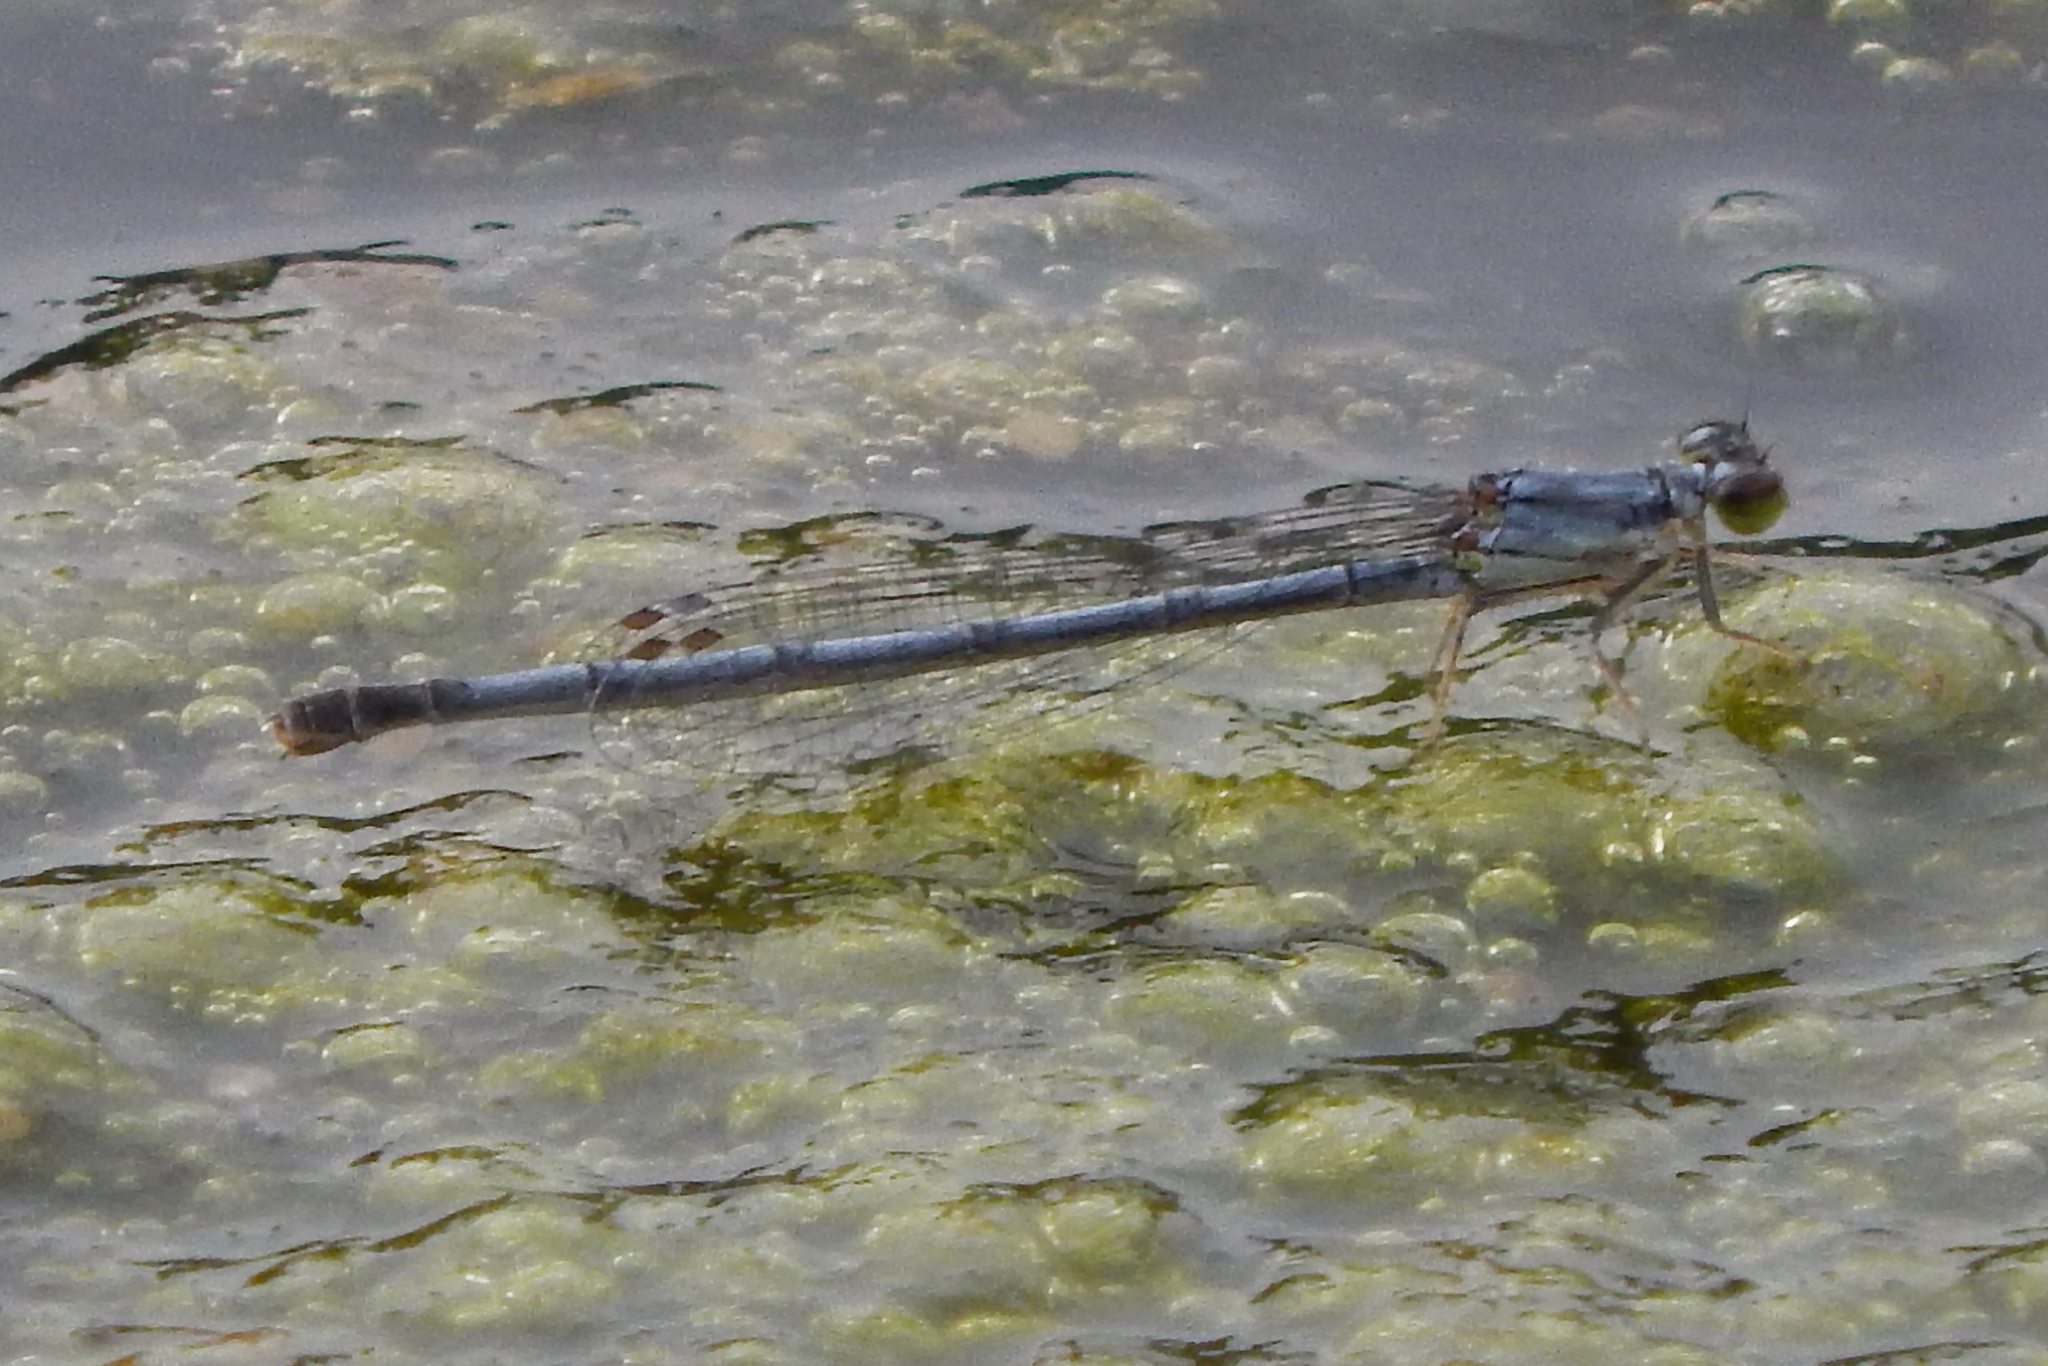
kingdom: Animalia
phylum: Arthropoda
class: Insecta
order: Odonata
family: Coenagrionidae
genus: Ischnura
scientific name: Ischnura posita
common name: Fragile forktail
